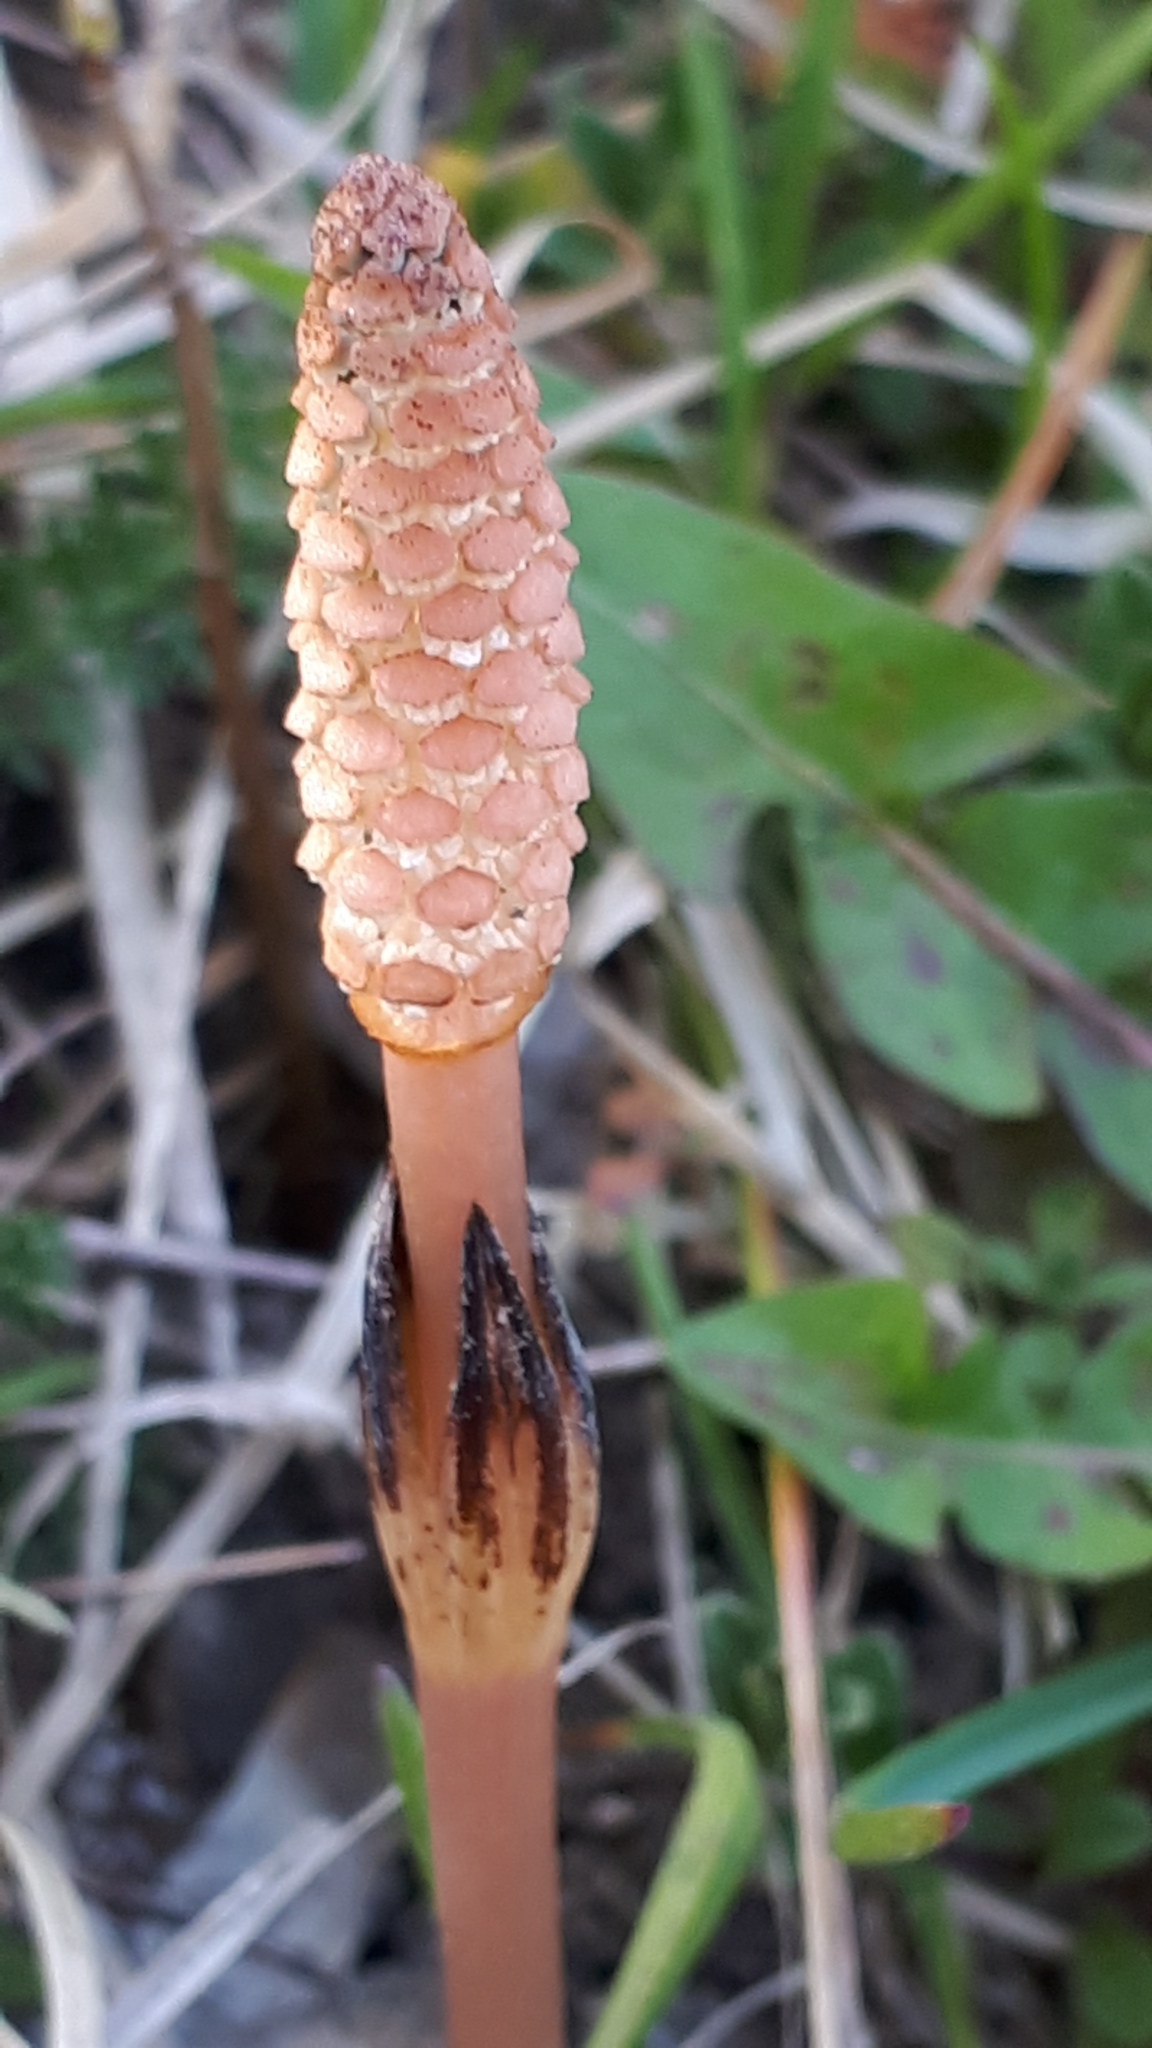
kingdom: Plantae
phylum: Tracheophyta
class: Polypodiopsida
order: Equisetales
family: Equisetaceae
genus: Equisetum
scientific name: Equisetum arvense
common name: Field horsetail
